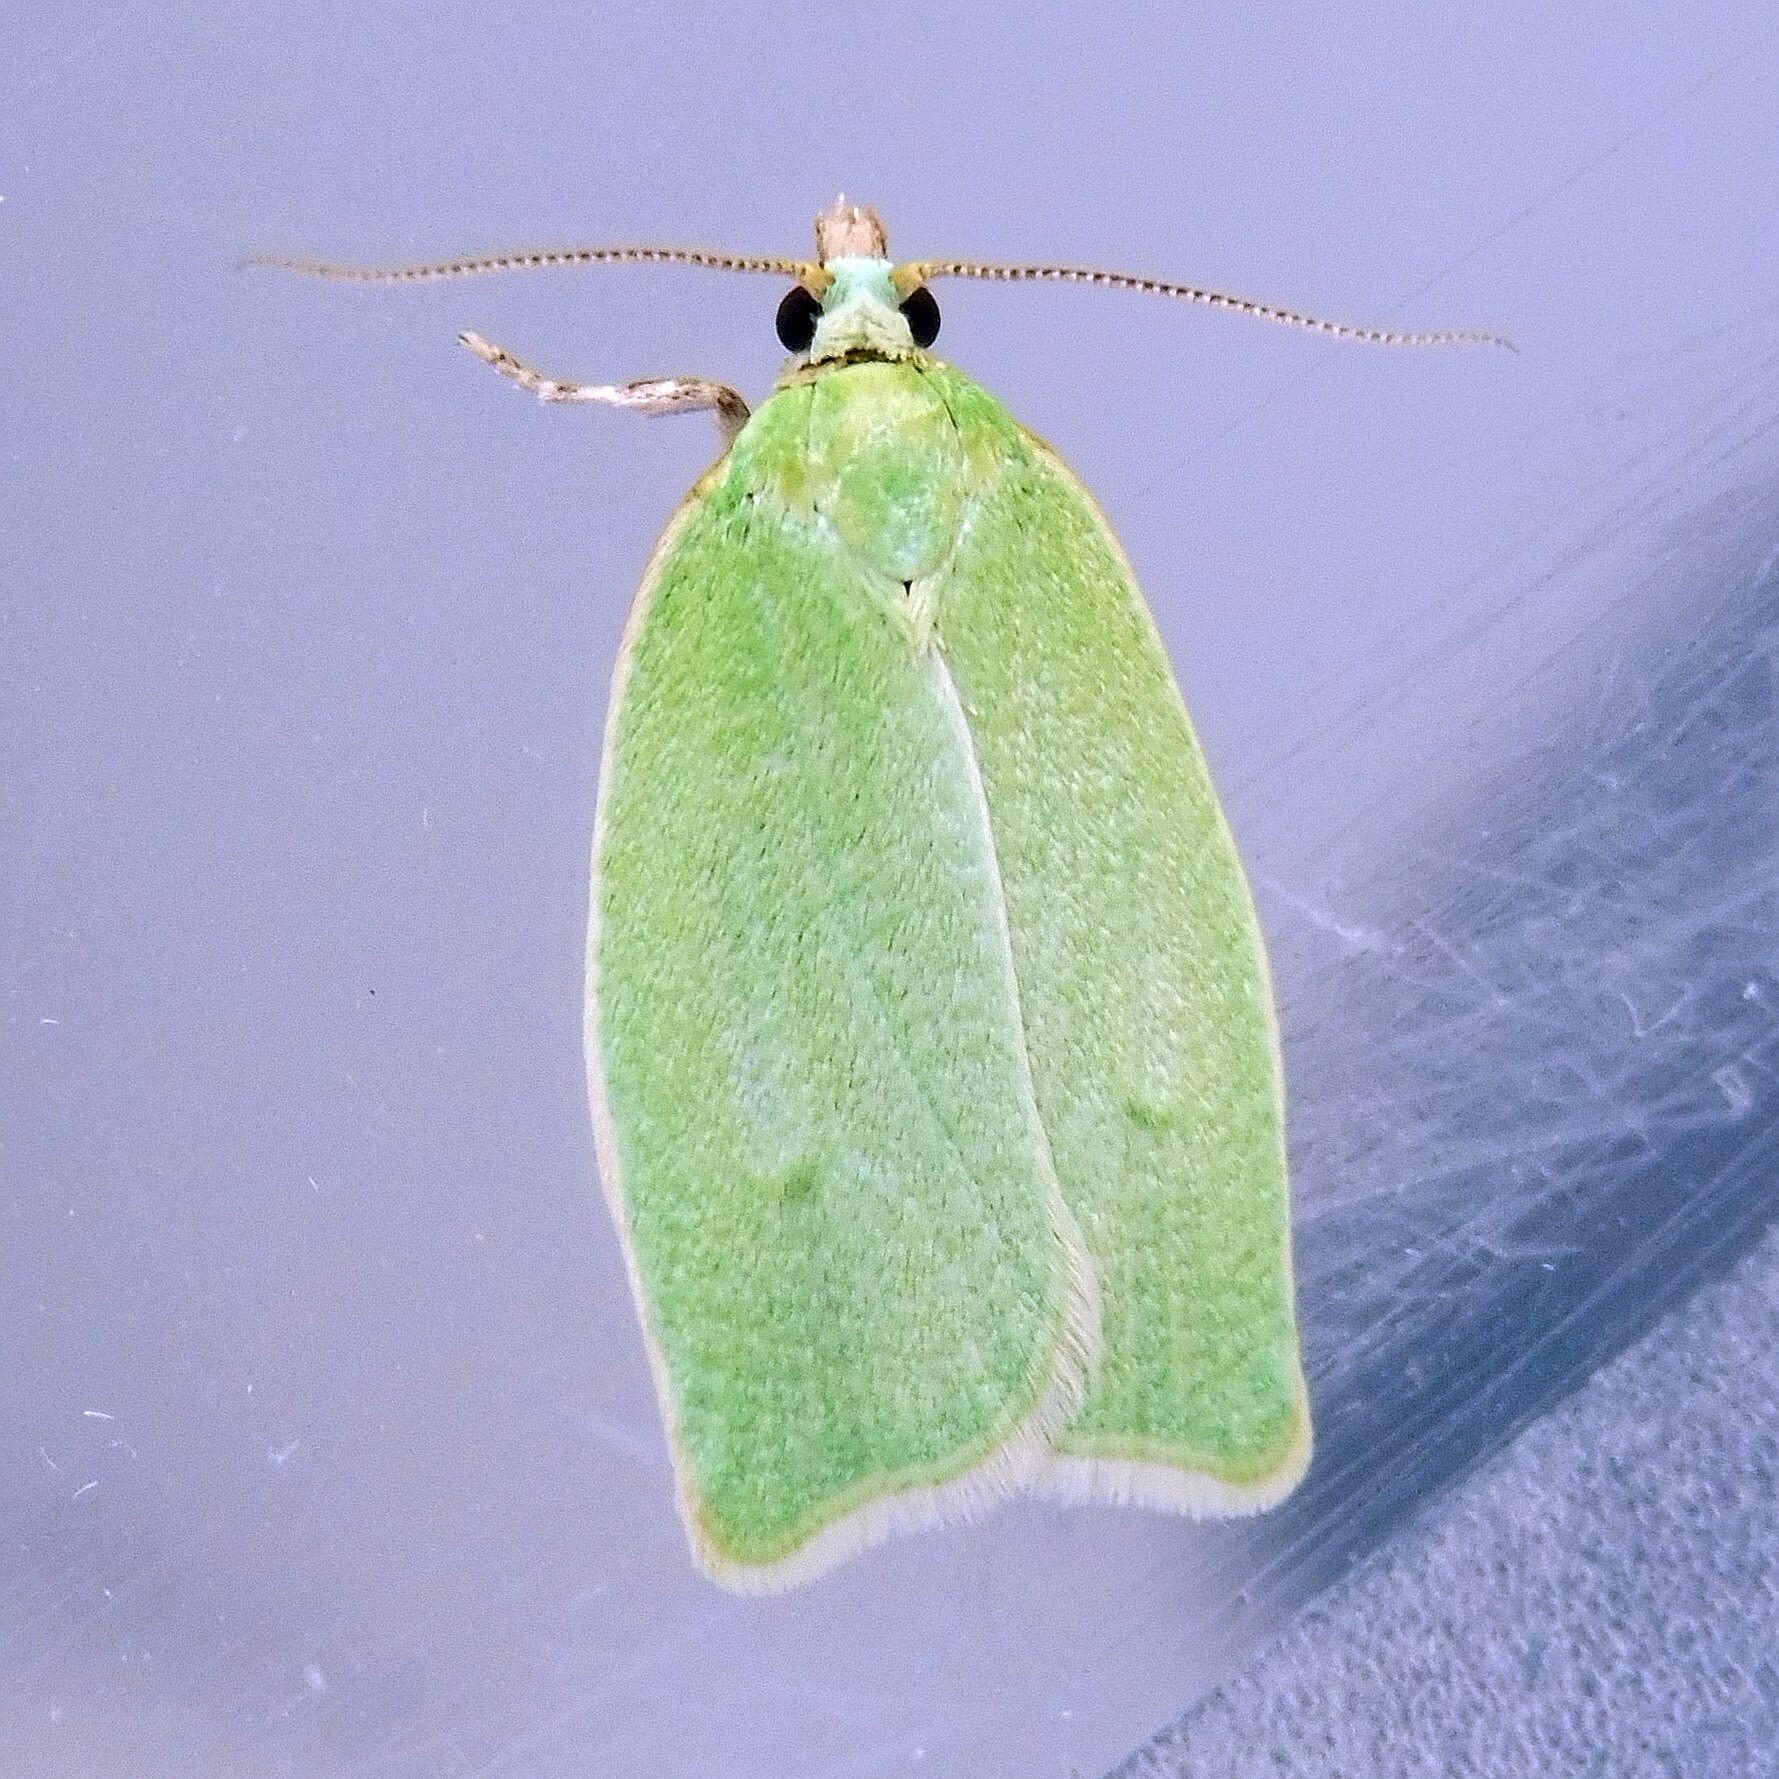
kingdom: Animalia
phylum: Arthropoda
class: Insecta
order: Lepidoptera
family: Tortricidae
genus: Tortrix
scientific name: Tortrix viridana
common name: Green oak tortrix
